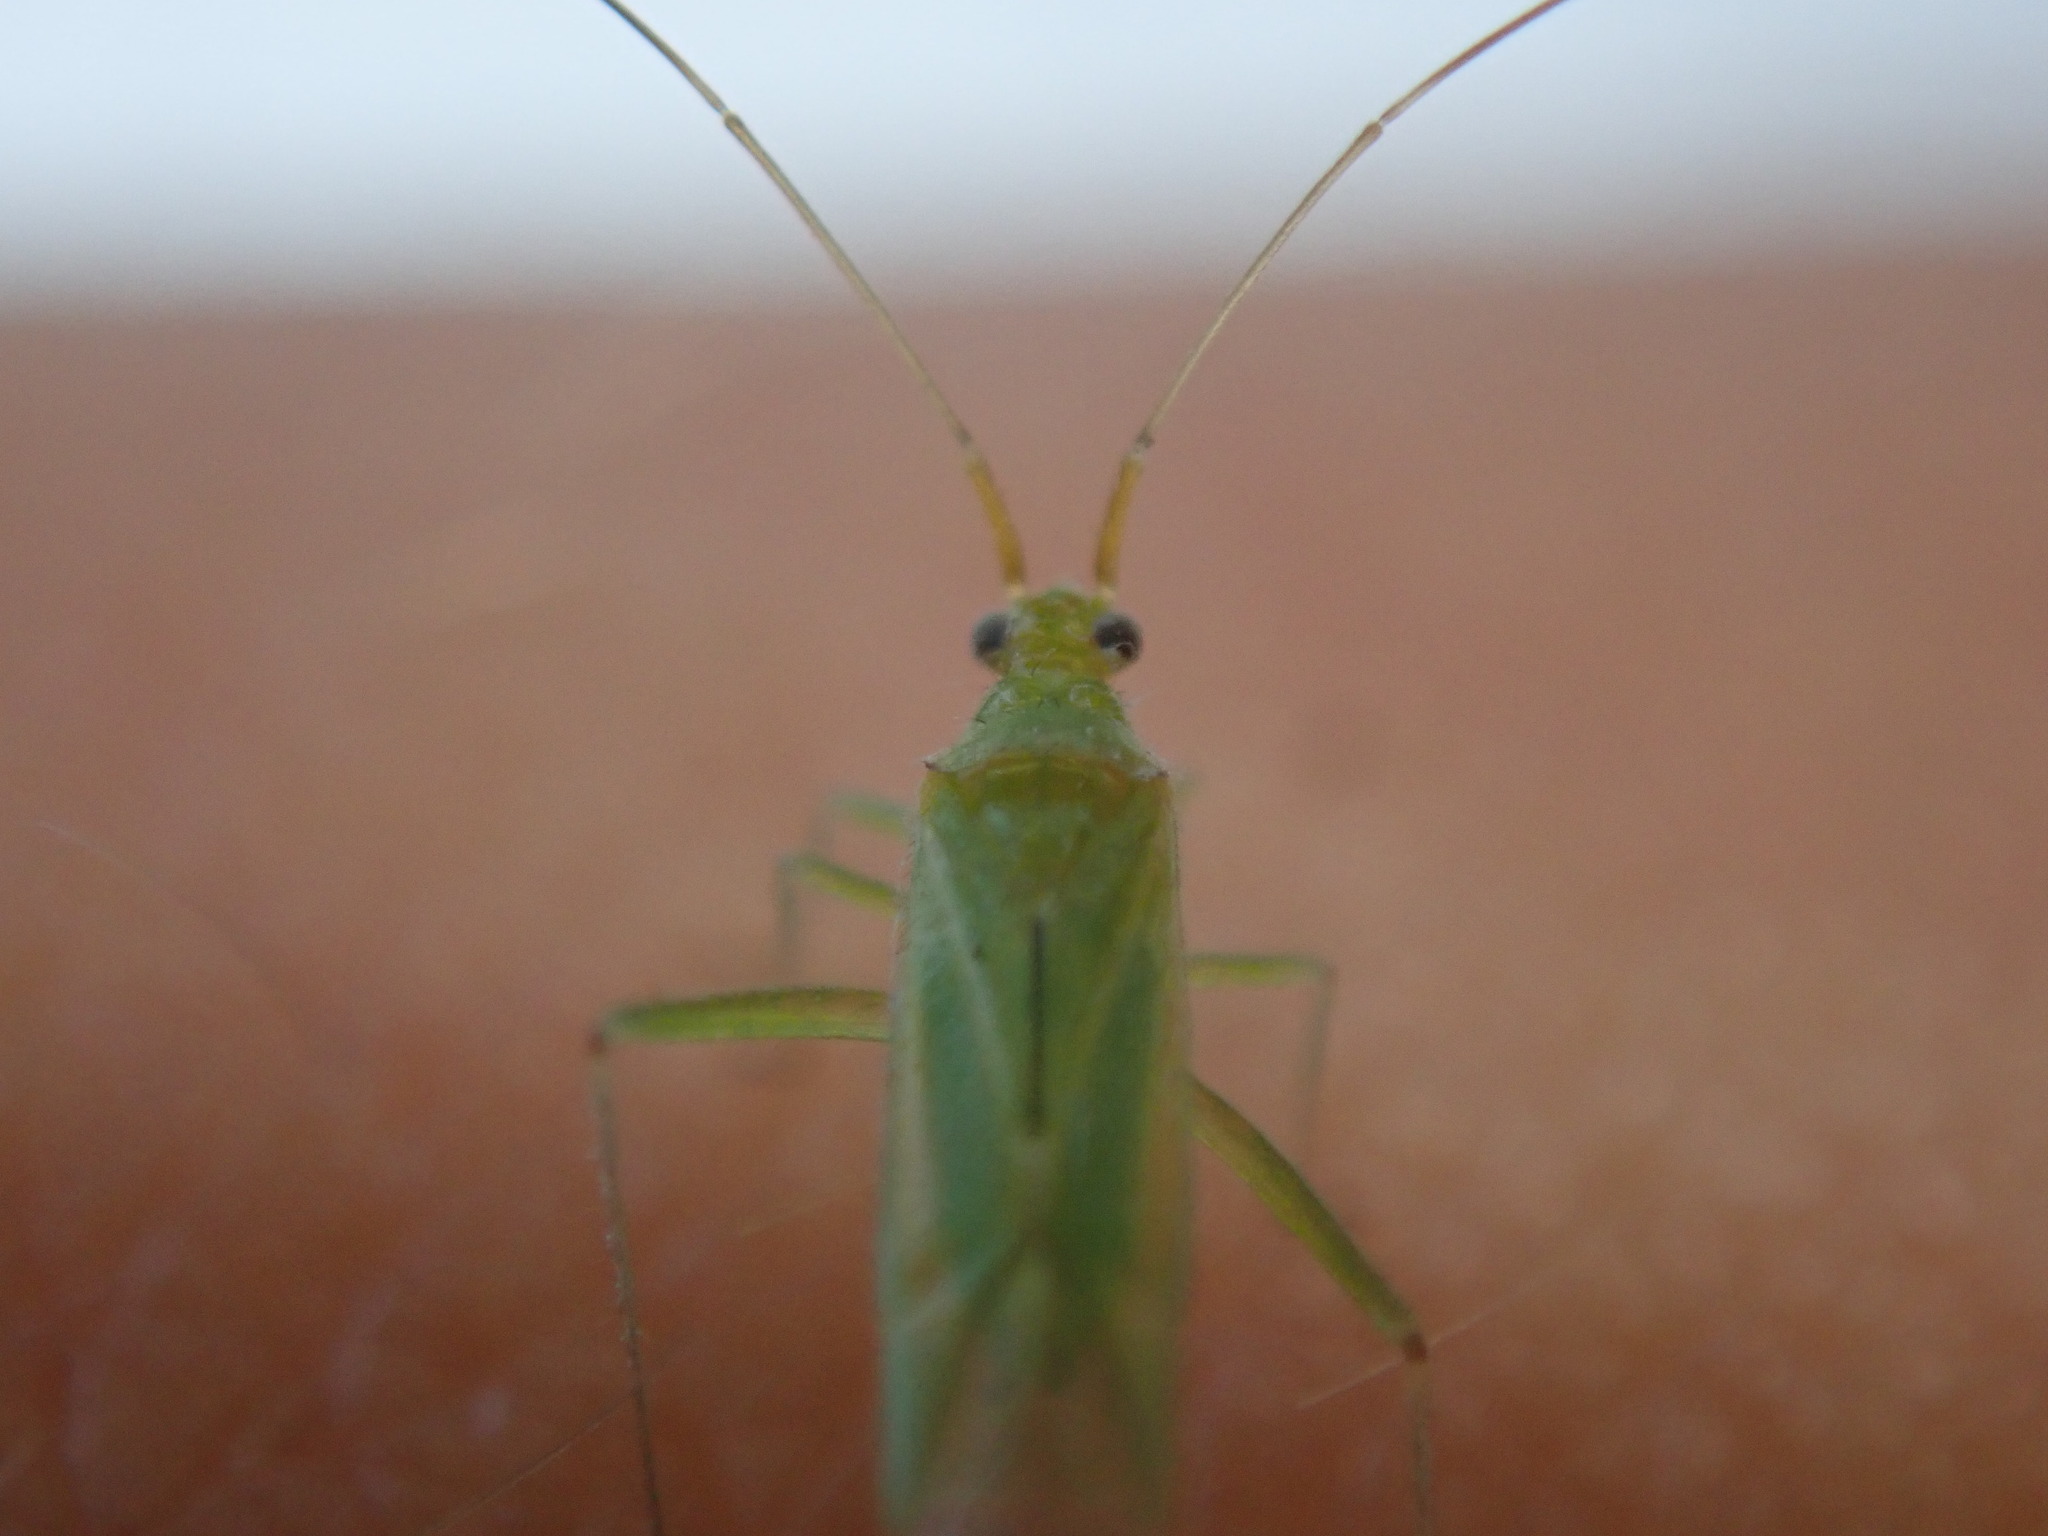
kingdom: Animalia
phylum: Arthropoda
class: Insecta
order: Hemiptera
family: Miridae
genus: Blepharidopterus
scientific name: Blepharidopterus angulatus
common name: Plant bug
